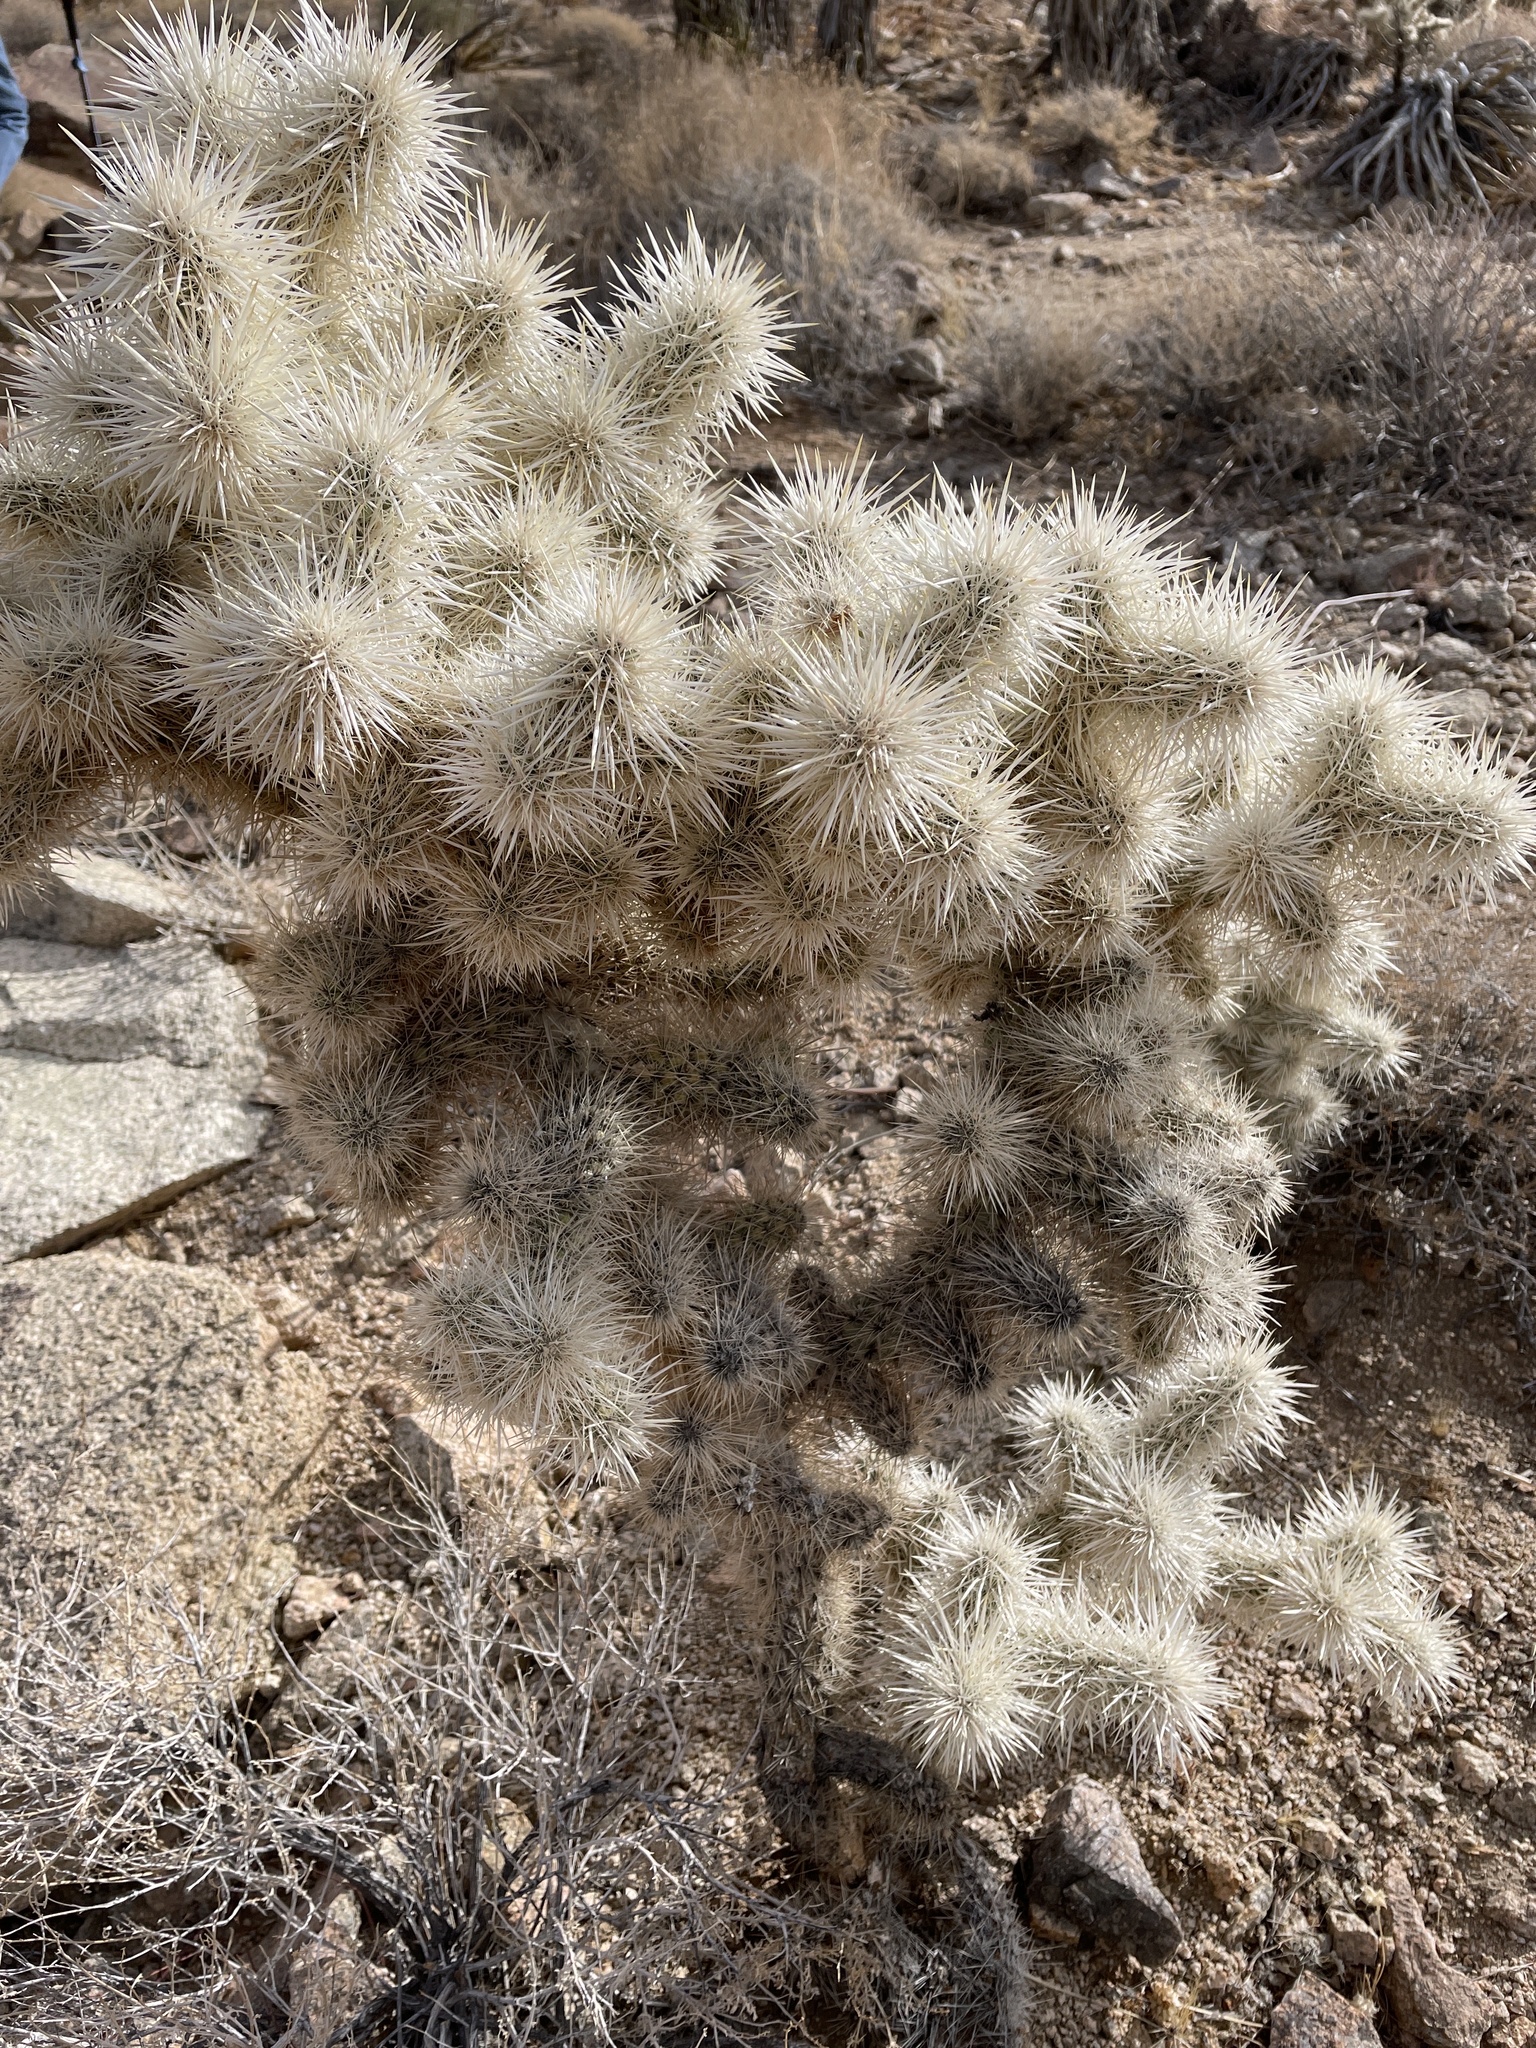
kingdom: Plantae
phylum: Tracheophyta
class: Magnoliopsida
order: Caryophyllales
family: Cactaceae
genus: Cylindropuntia
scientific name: Cylindropuntia echinocarpa
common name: Ground cholla
